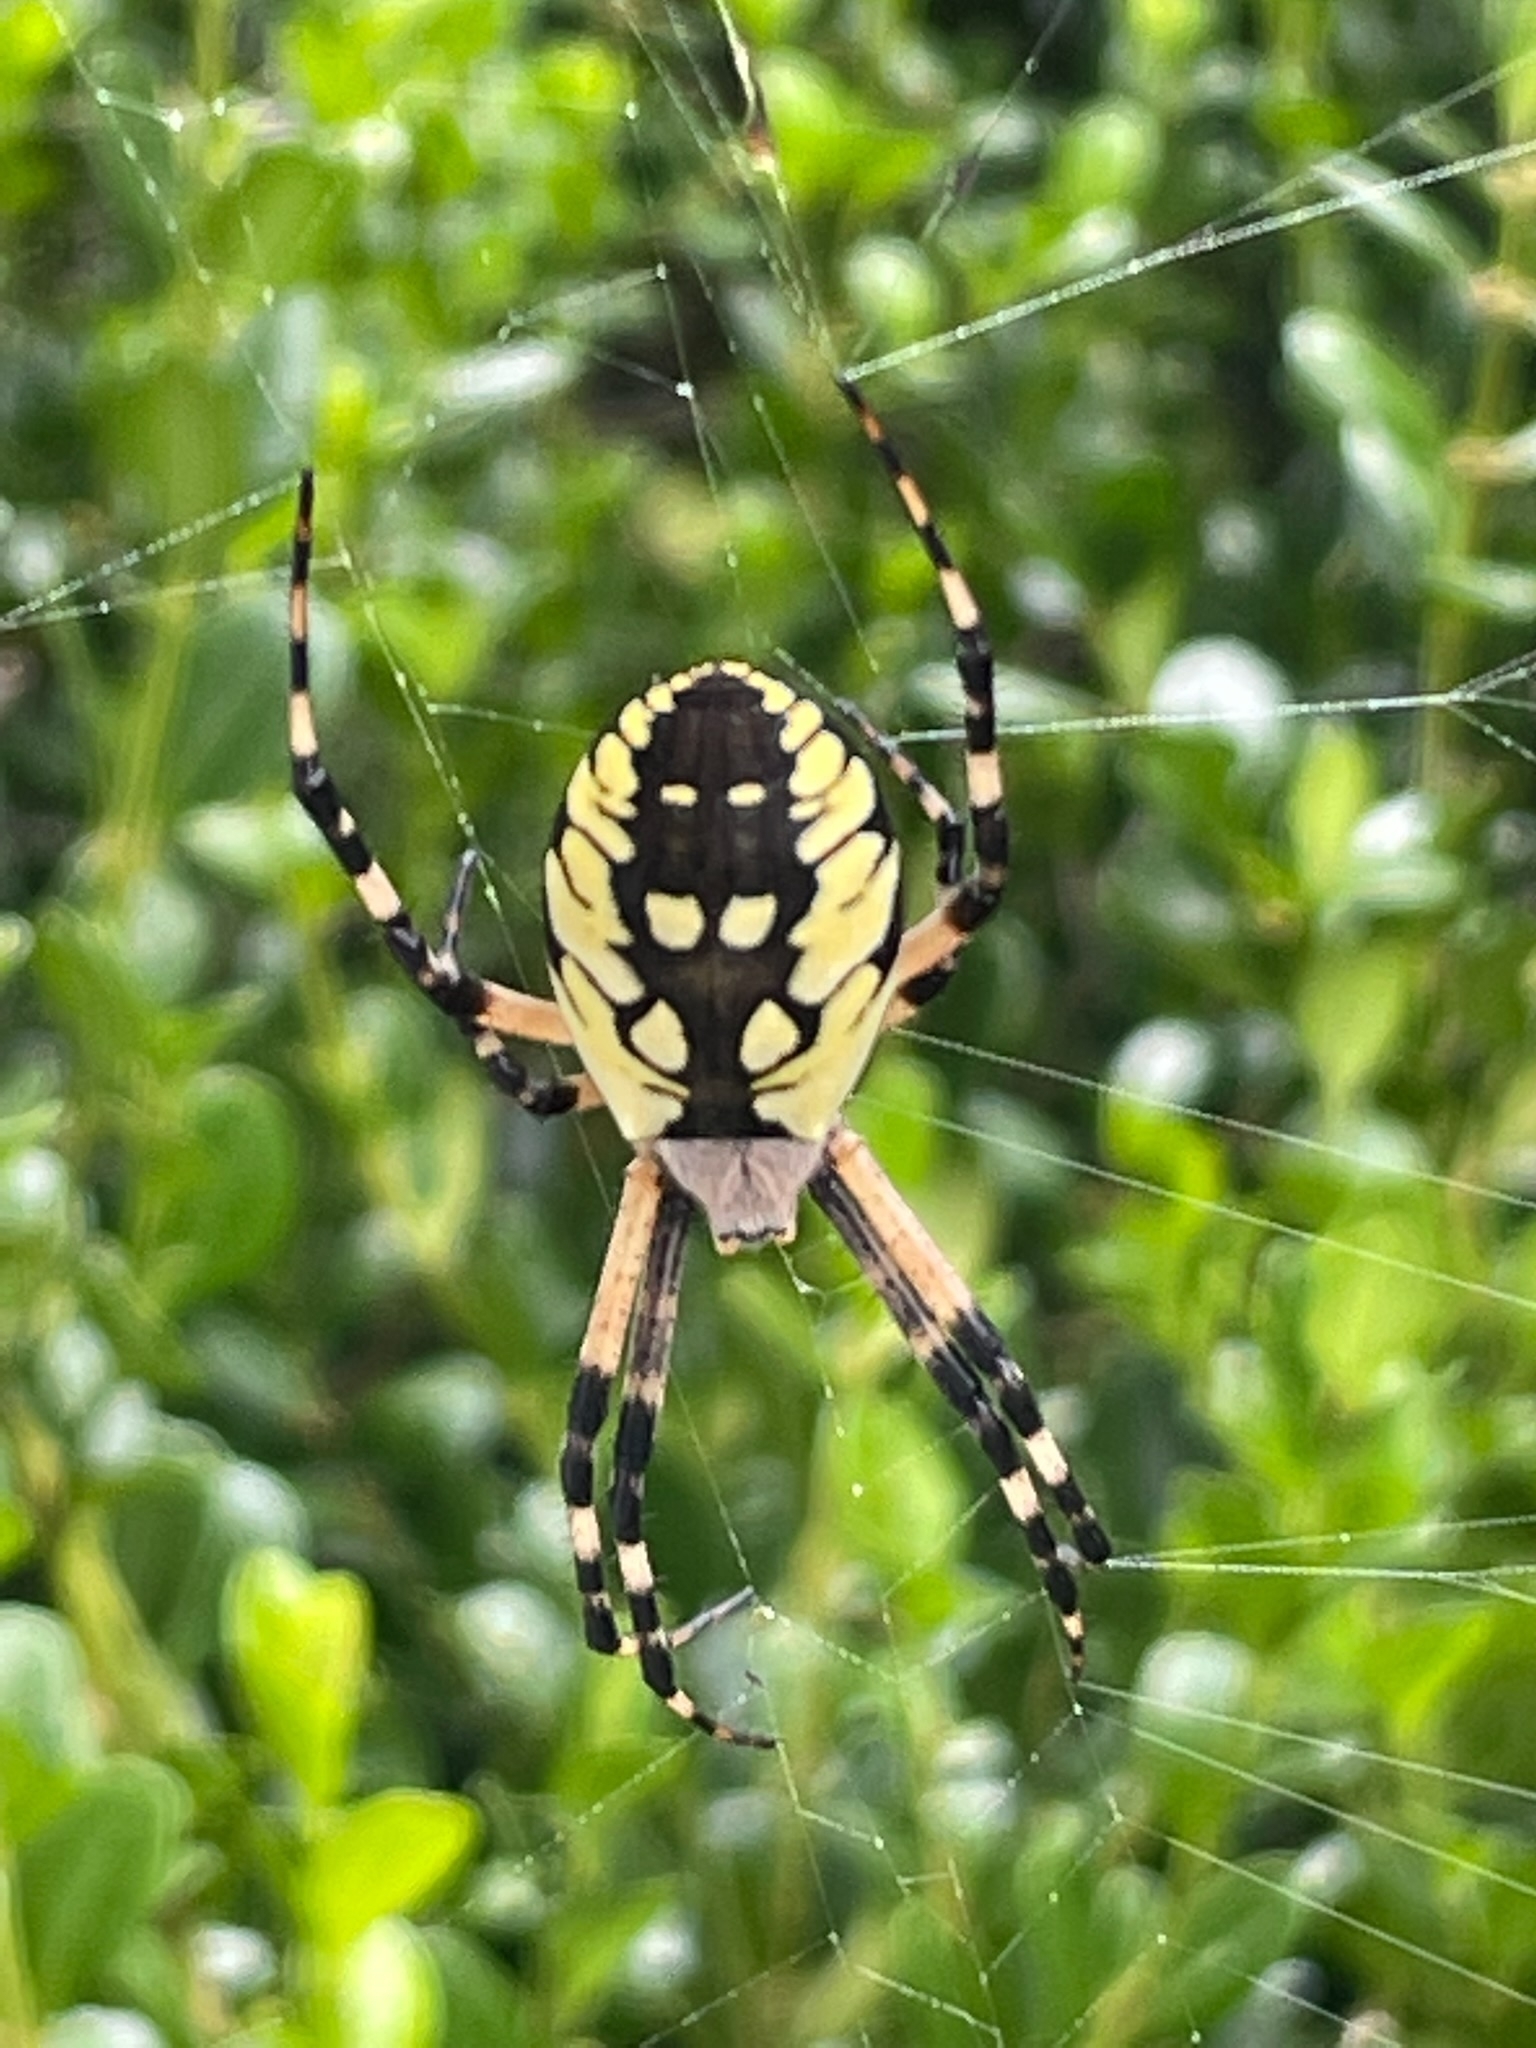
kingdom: Animalia
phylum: Arthropoda
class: Arachnida
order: Araneae
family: Araneidae
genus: Argiope
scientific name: Argiope aurantia
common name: Orb weavers
